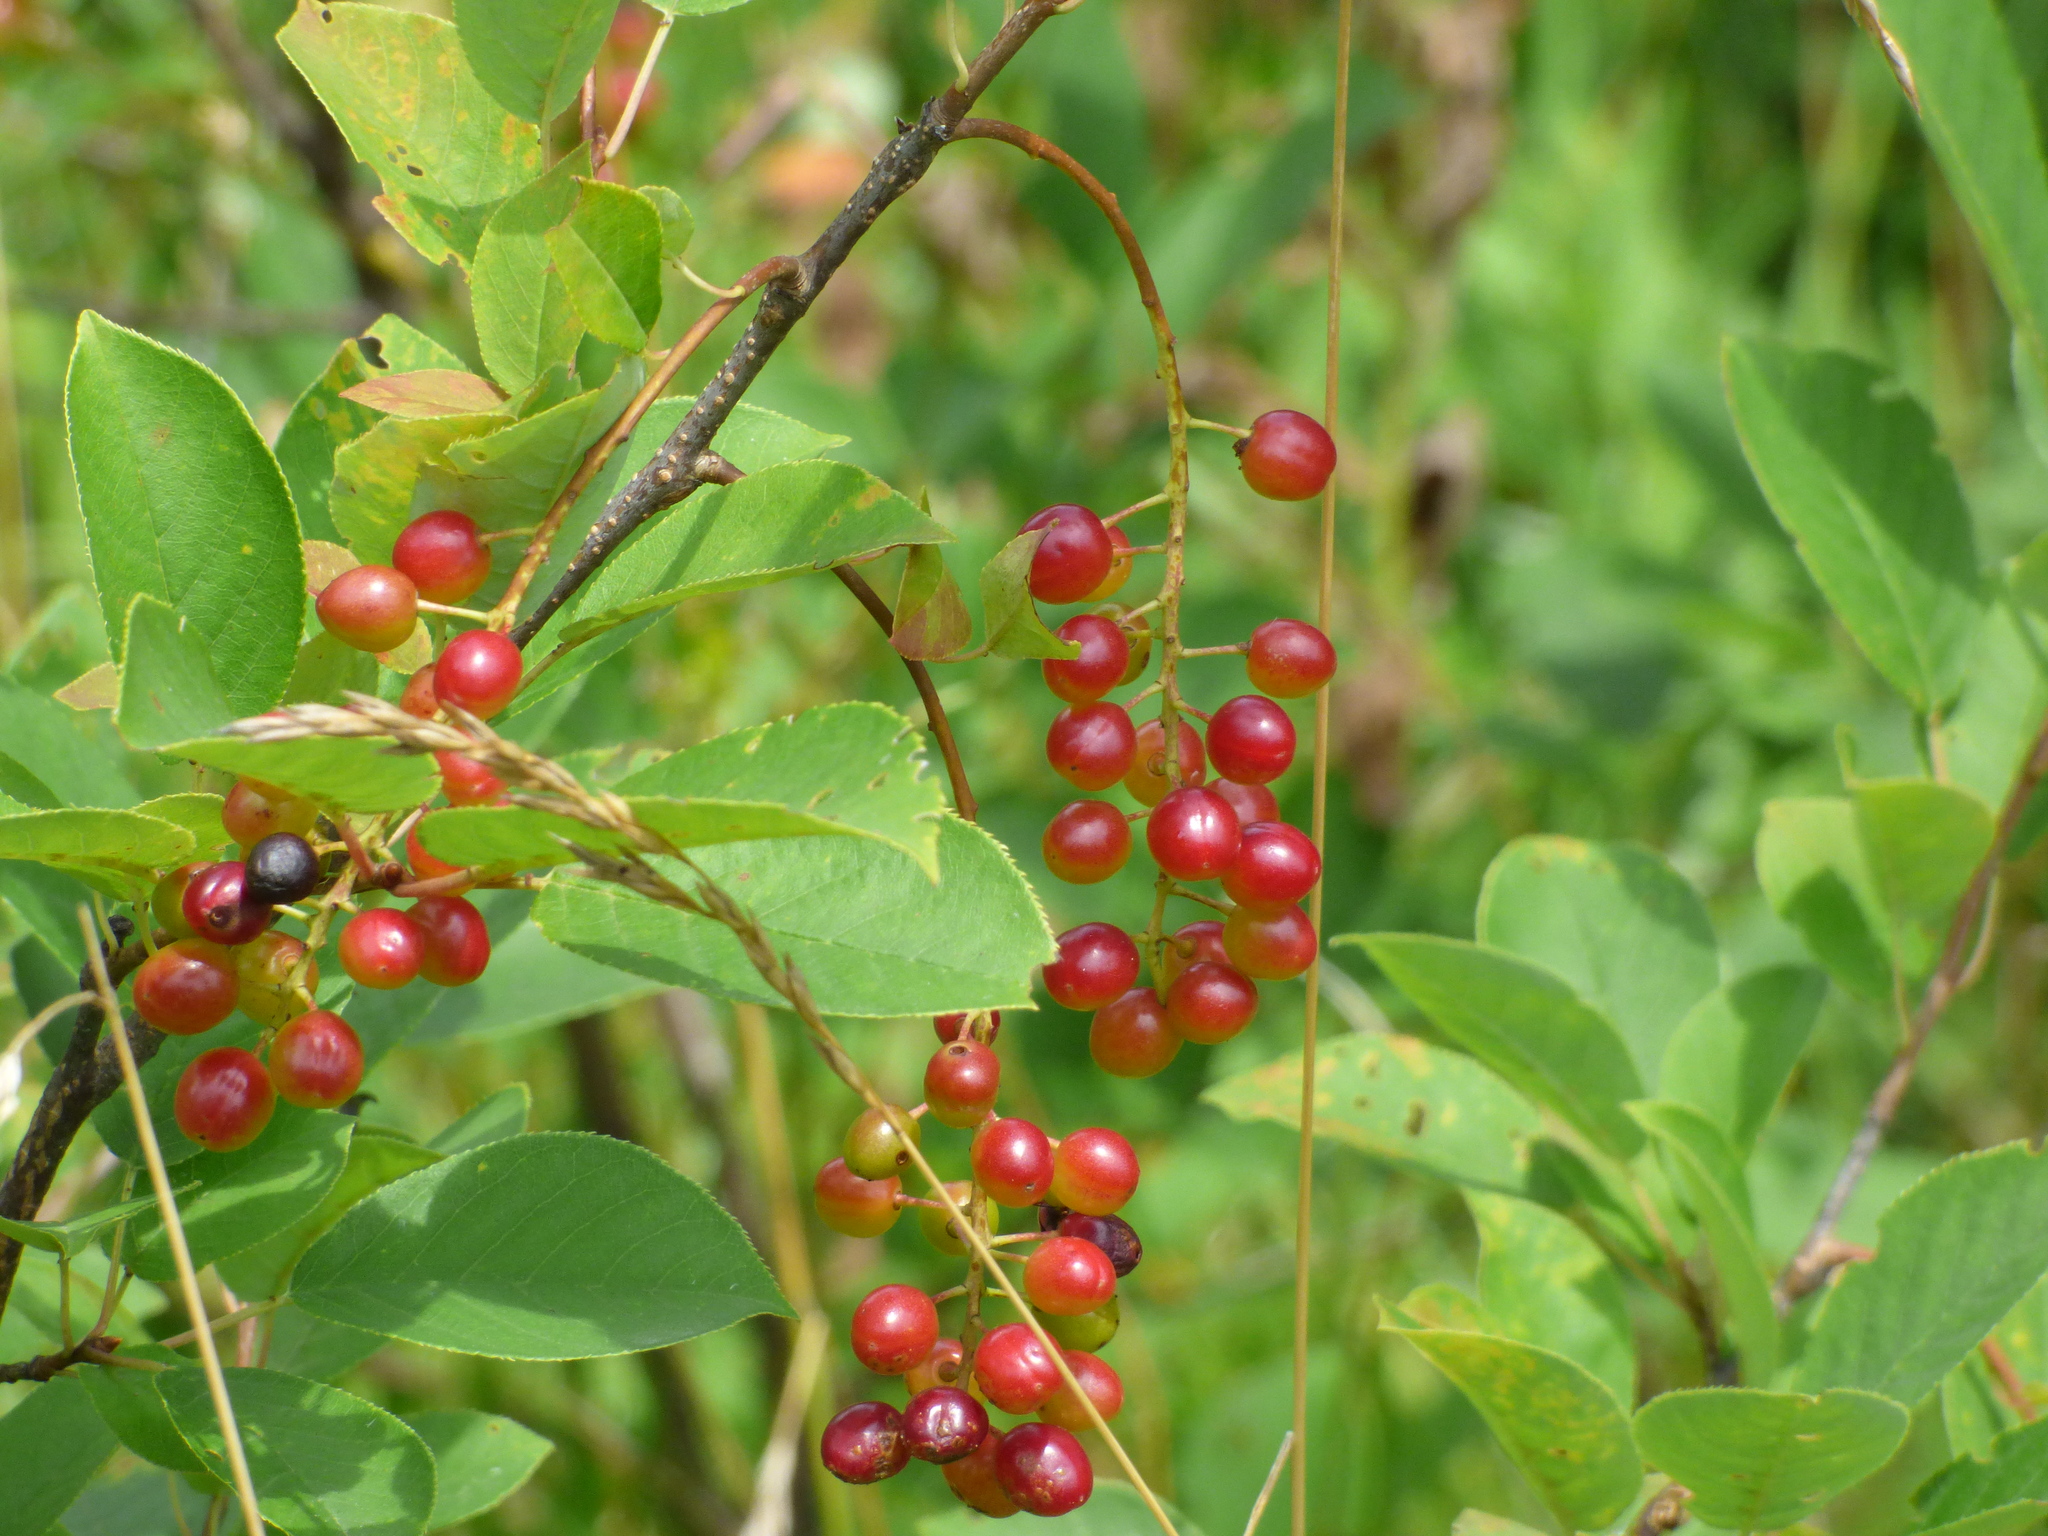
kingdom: Plantae
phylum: Tracheophyta
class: Magnoliopsida
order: Rosales
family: Rosaceae
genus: Prunus
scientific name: Prunus virginiana
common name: Chokecherry
